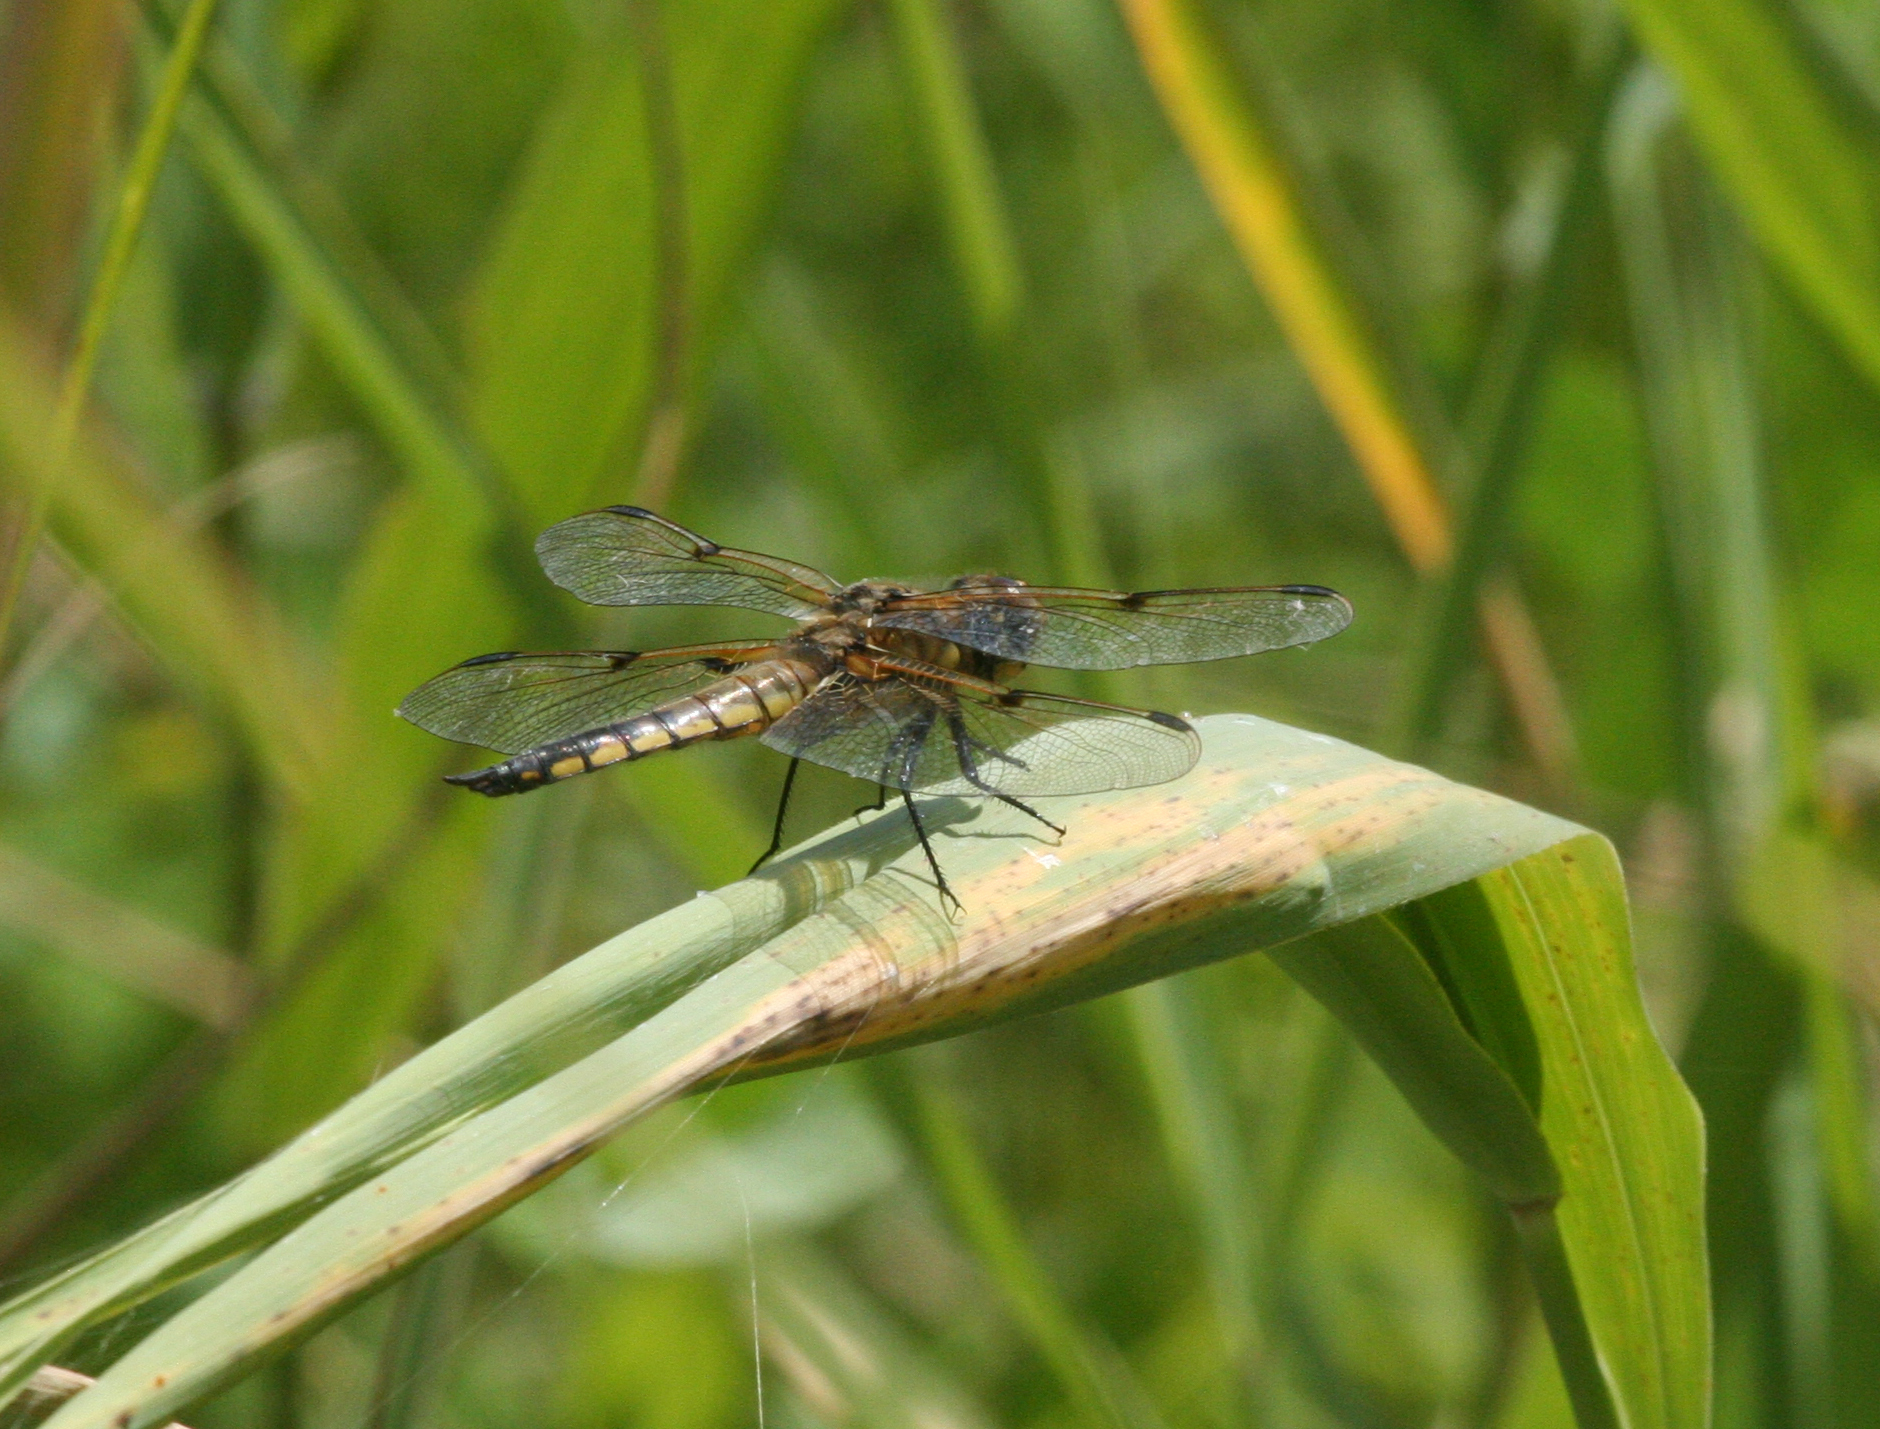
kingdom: Animalia
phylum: Arthropoda
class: Insecta
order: Odonata
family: Libellulidae
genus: Libellula
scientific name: Libellula quadrimaculata
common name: Four-spotted chaser
